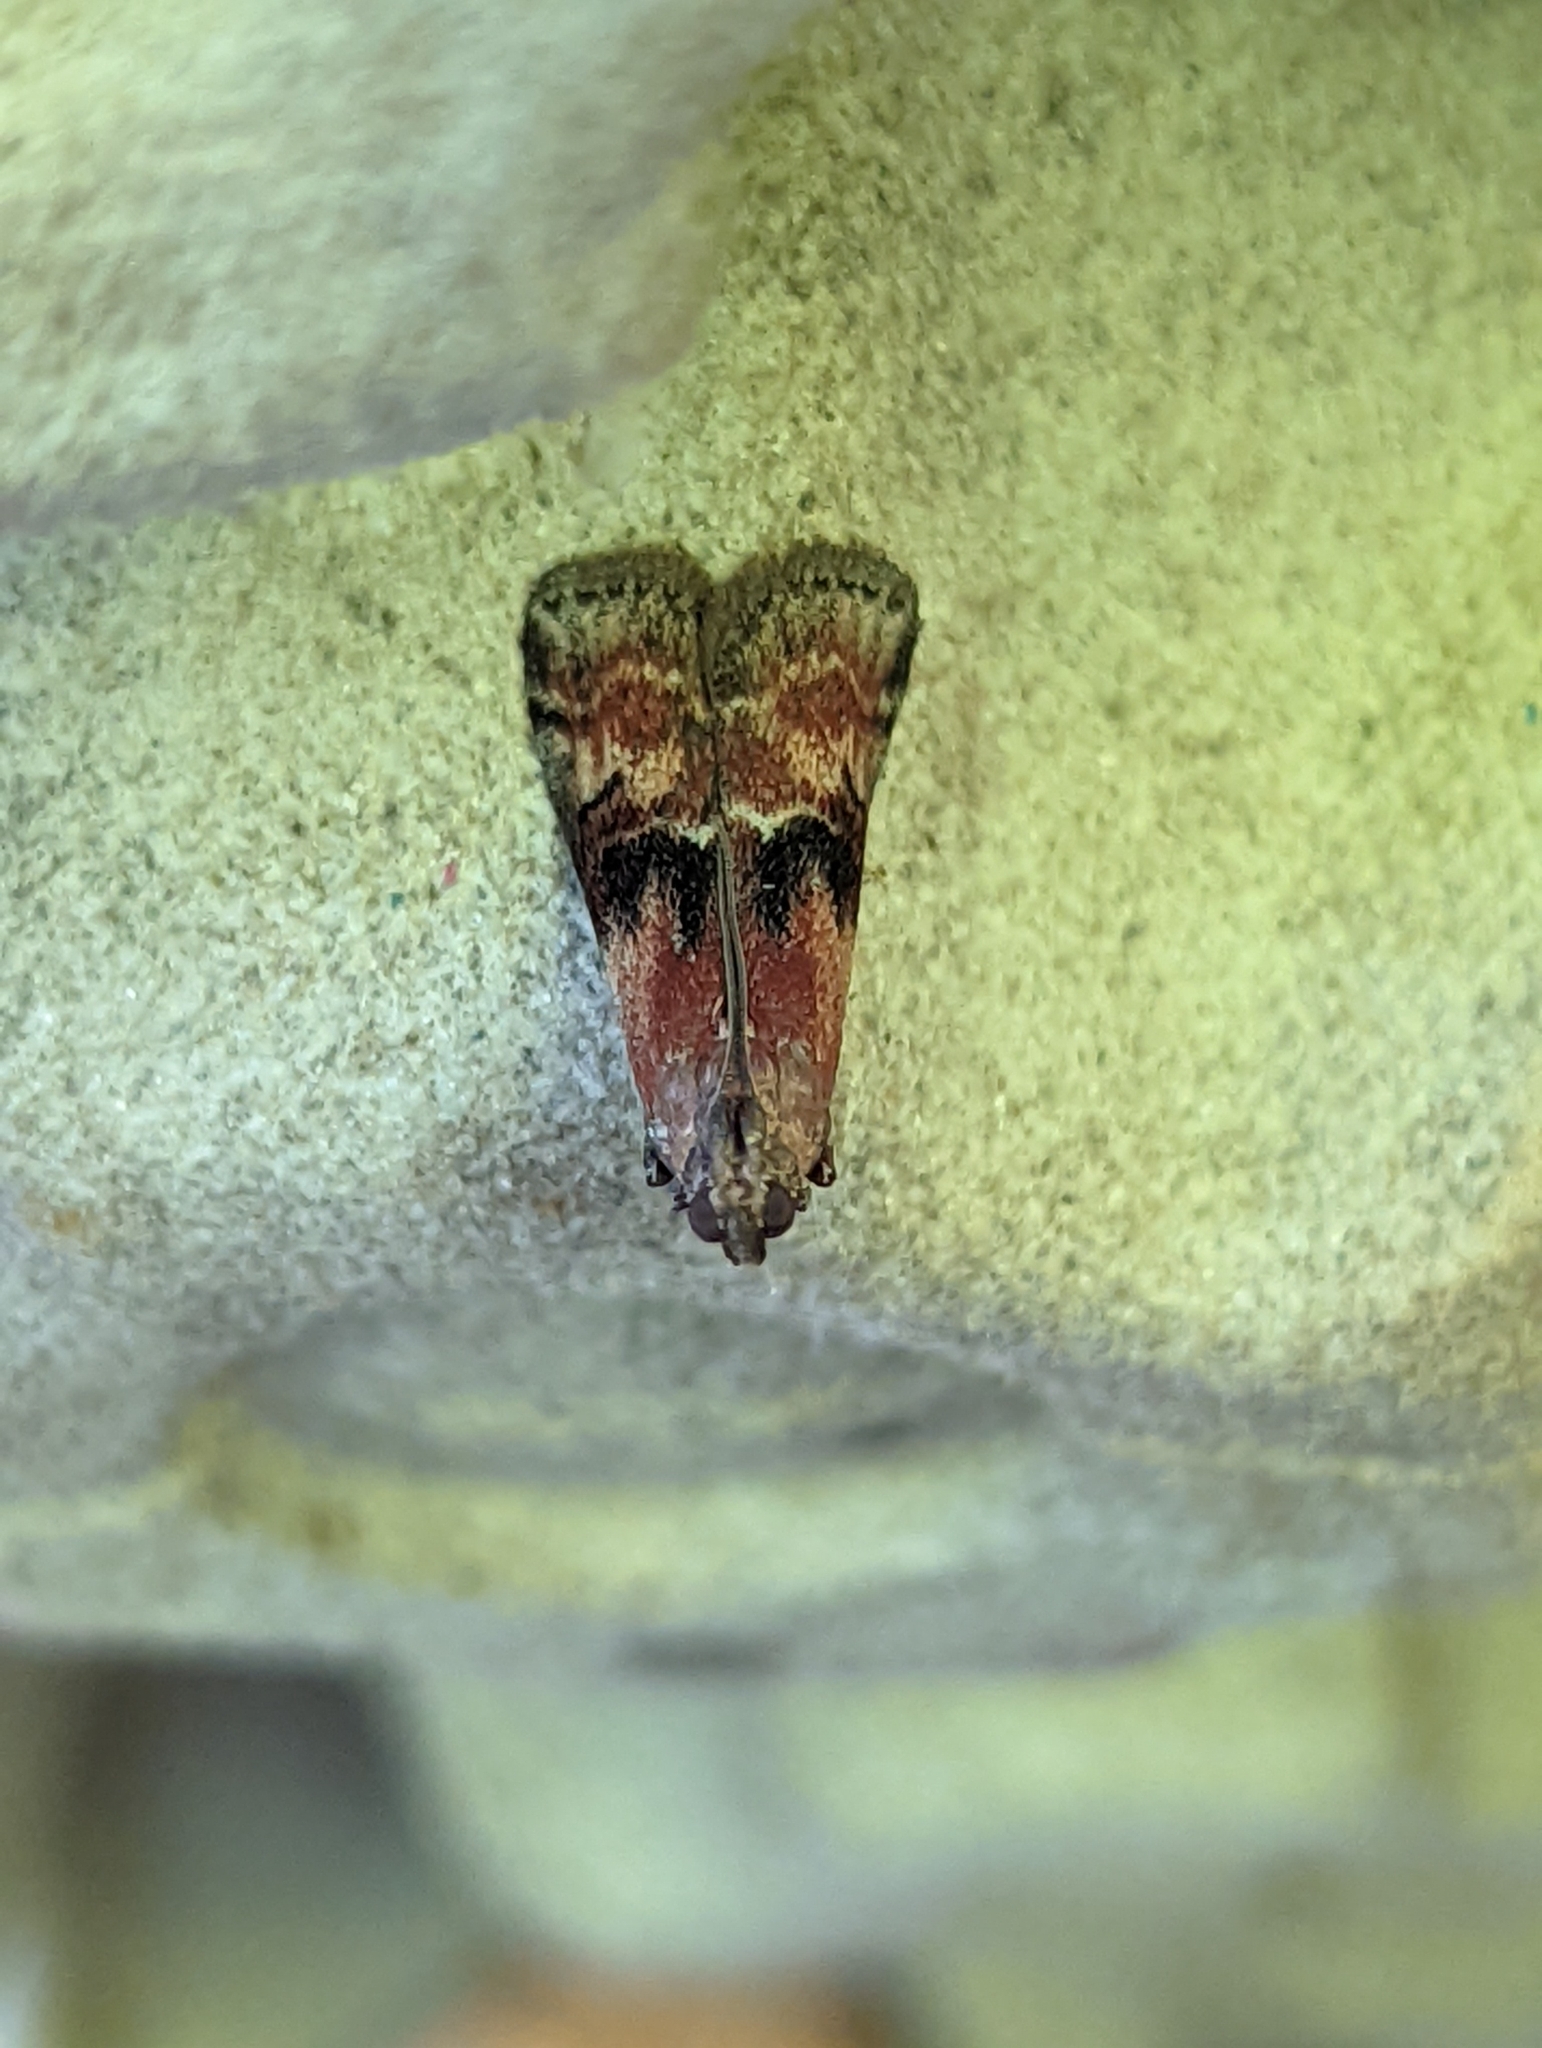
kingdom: Animalia
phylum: Arthropoda
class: Insecta
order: Lepidoptera
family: Pyralidae
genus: Rhodophaea
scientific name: Rhodophaea formosa
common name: Beautiful knot-horn
